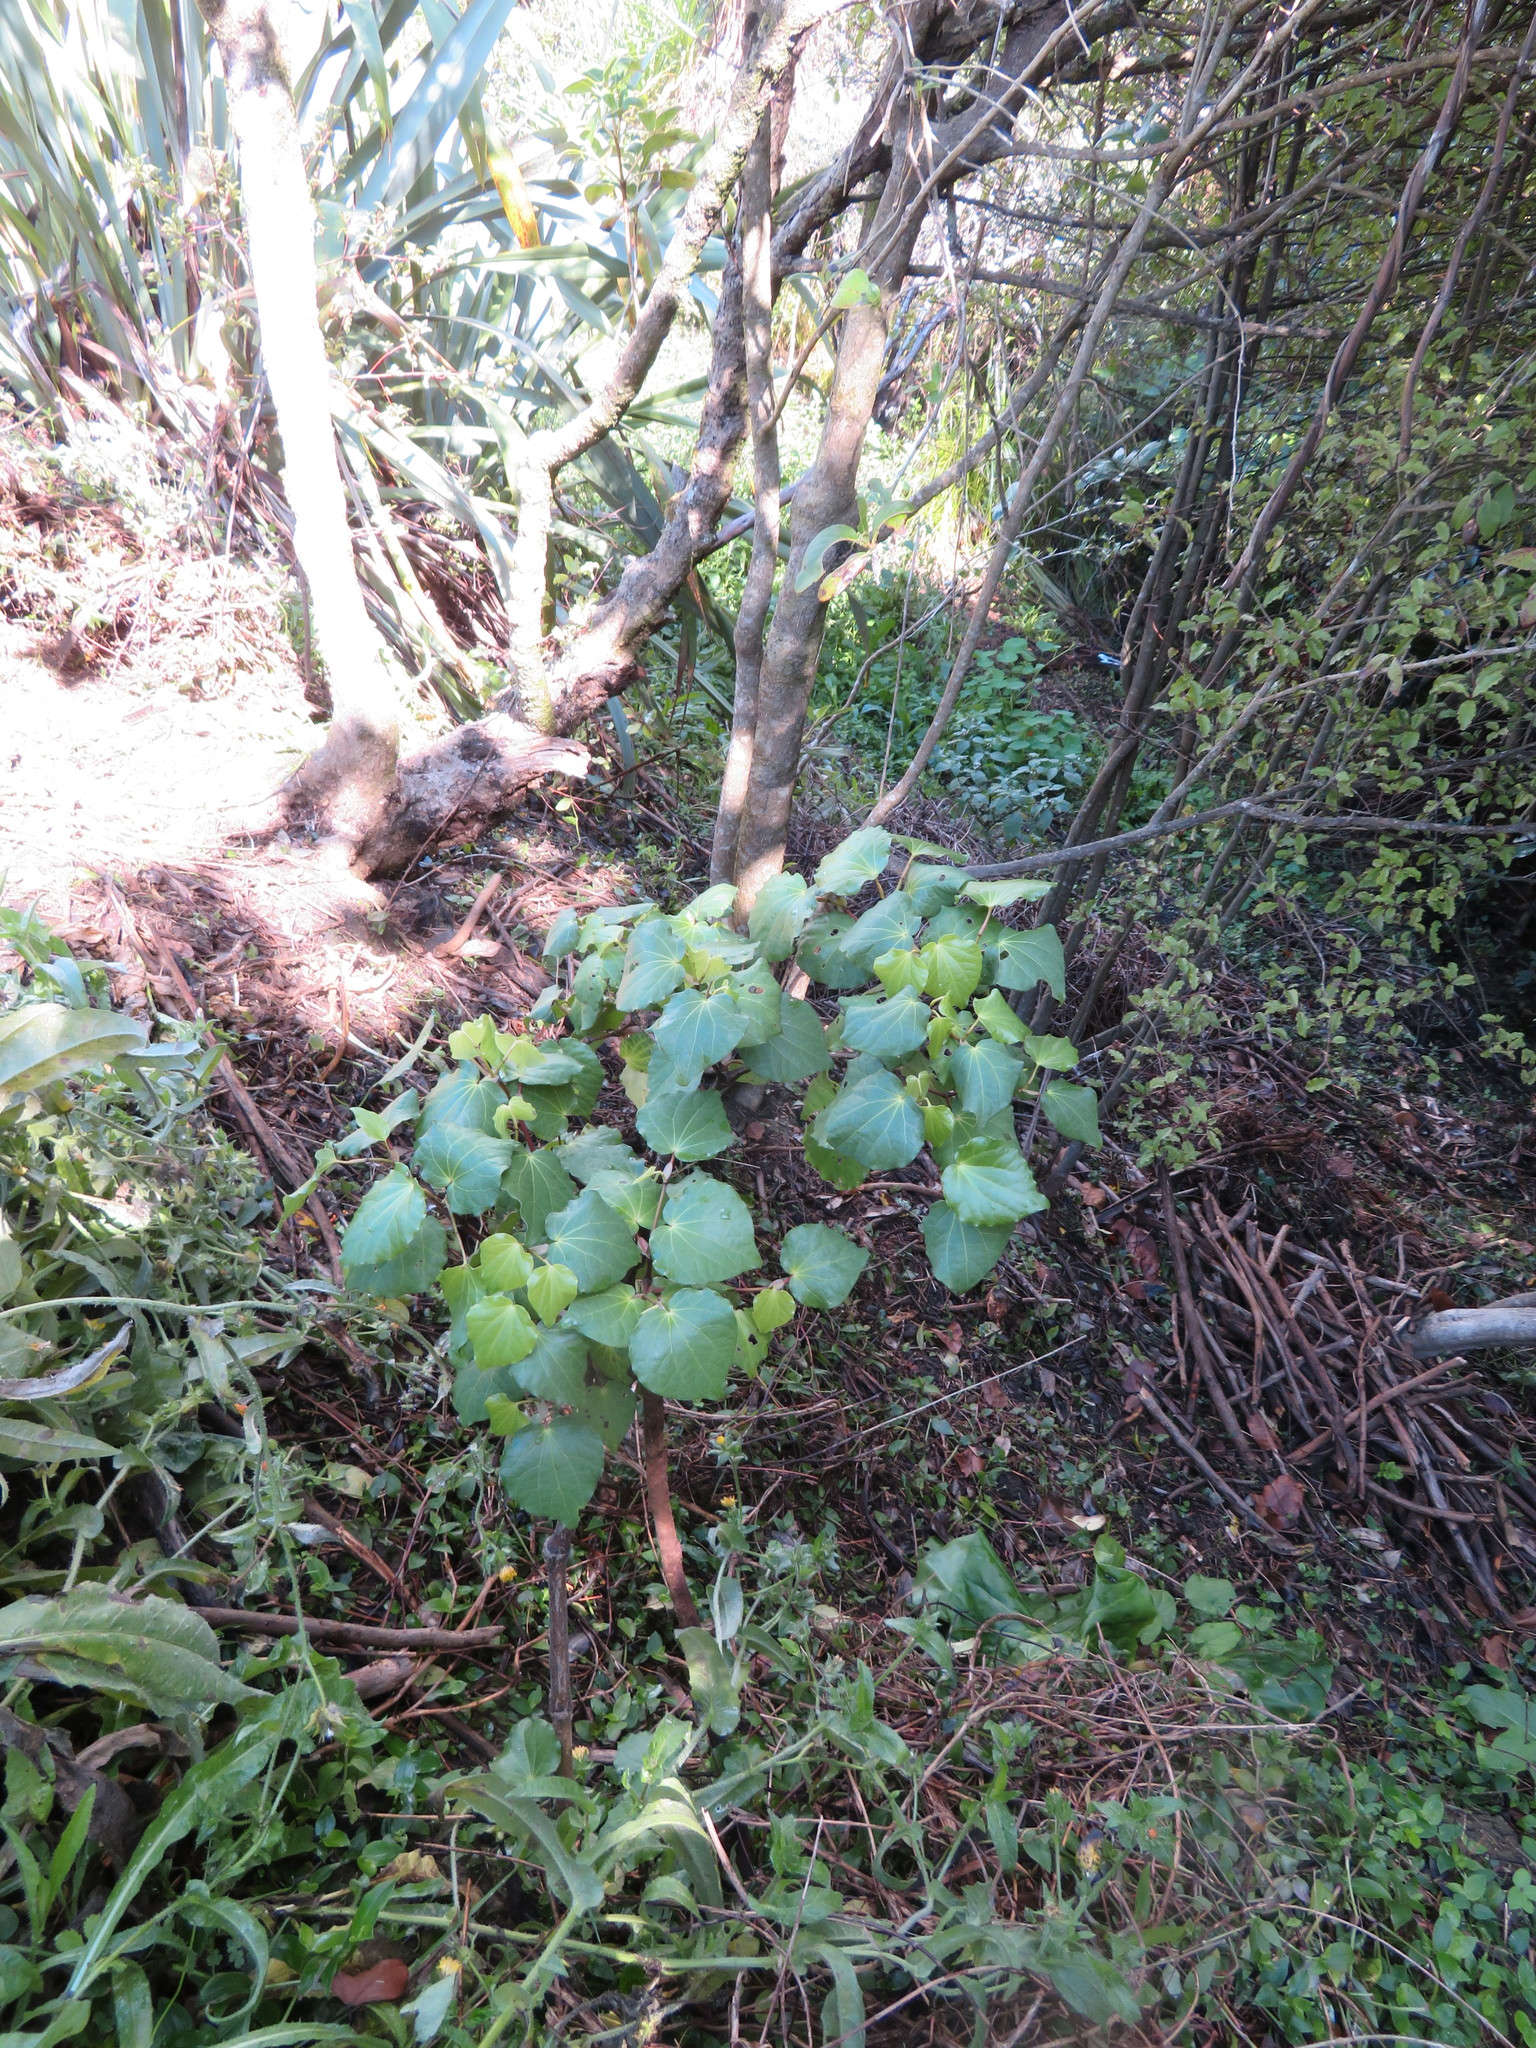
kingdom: Plantae
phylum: Tracheophyta
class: Magnoliopsida
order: Piperales
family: Piperaceae
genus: Macropiper
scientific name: Macropiper excelsum
